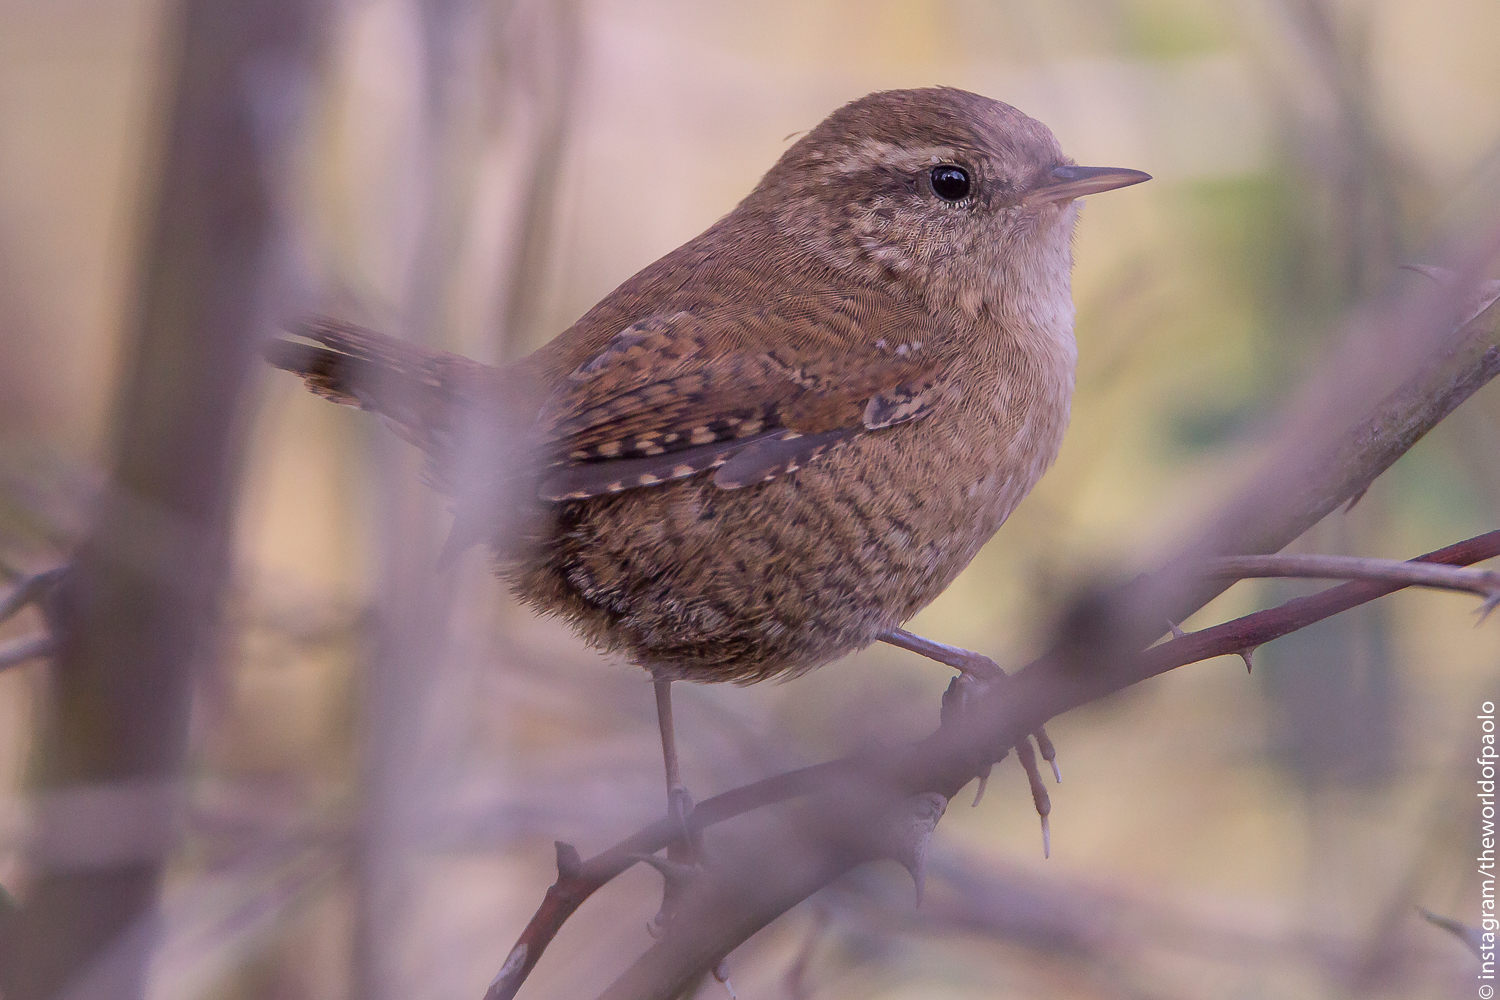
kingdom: Animalia
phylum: Chordata
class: Aves
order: Passeriformes
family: Troglodytidae
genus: Troglodytes
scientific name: Troglodytes troglodytes
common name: Eurasian wren
